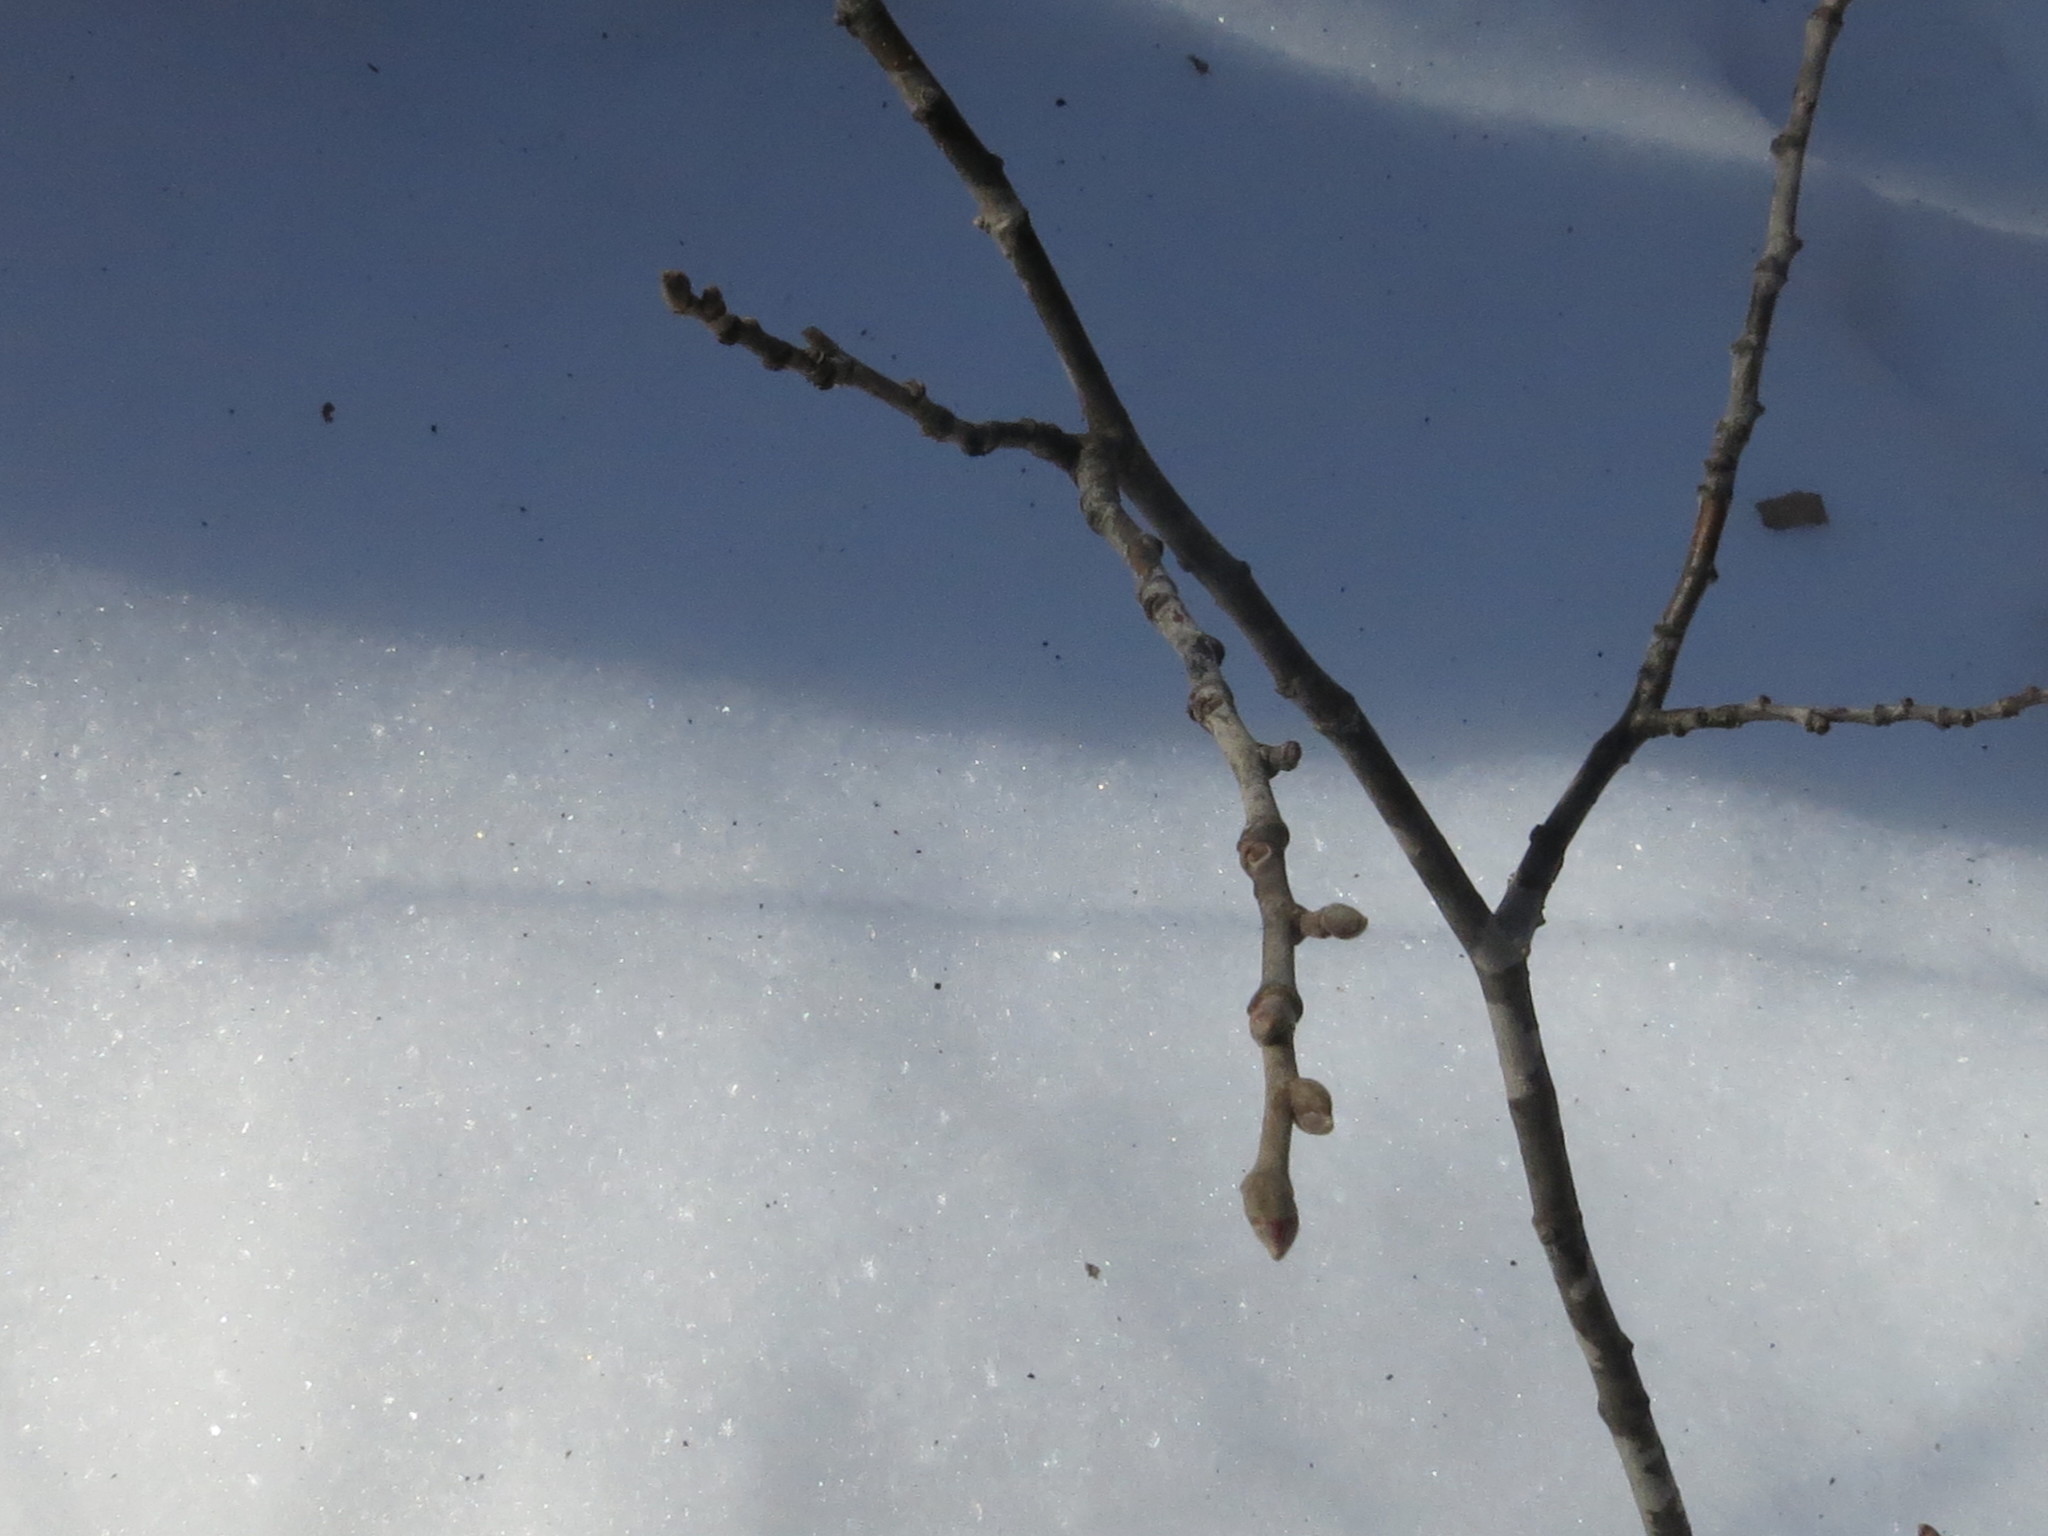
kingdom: Plantae
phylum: Tracheophyta
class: Magnoliopsida
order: Malvales
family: Malvaceae
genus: Tilia
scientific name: Tilia mandshurica
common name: Manchurian linden
